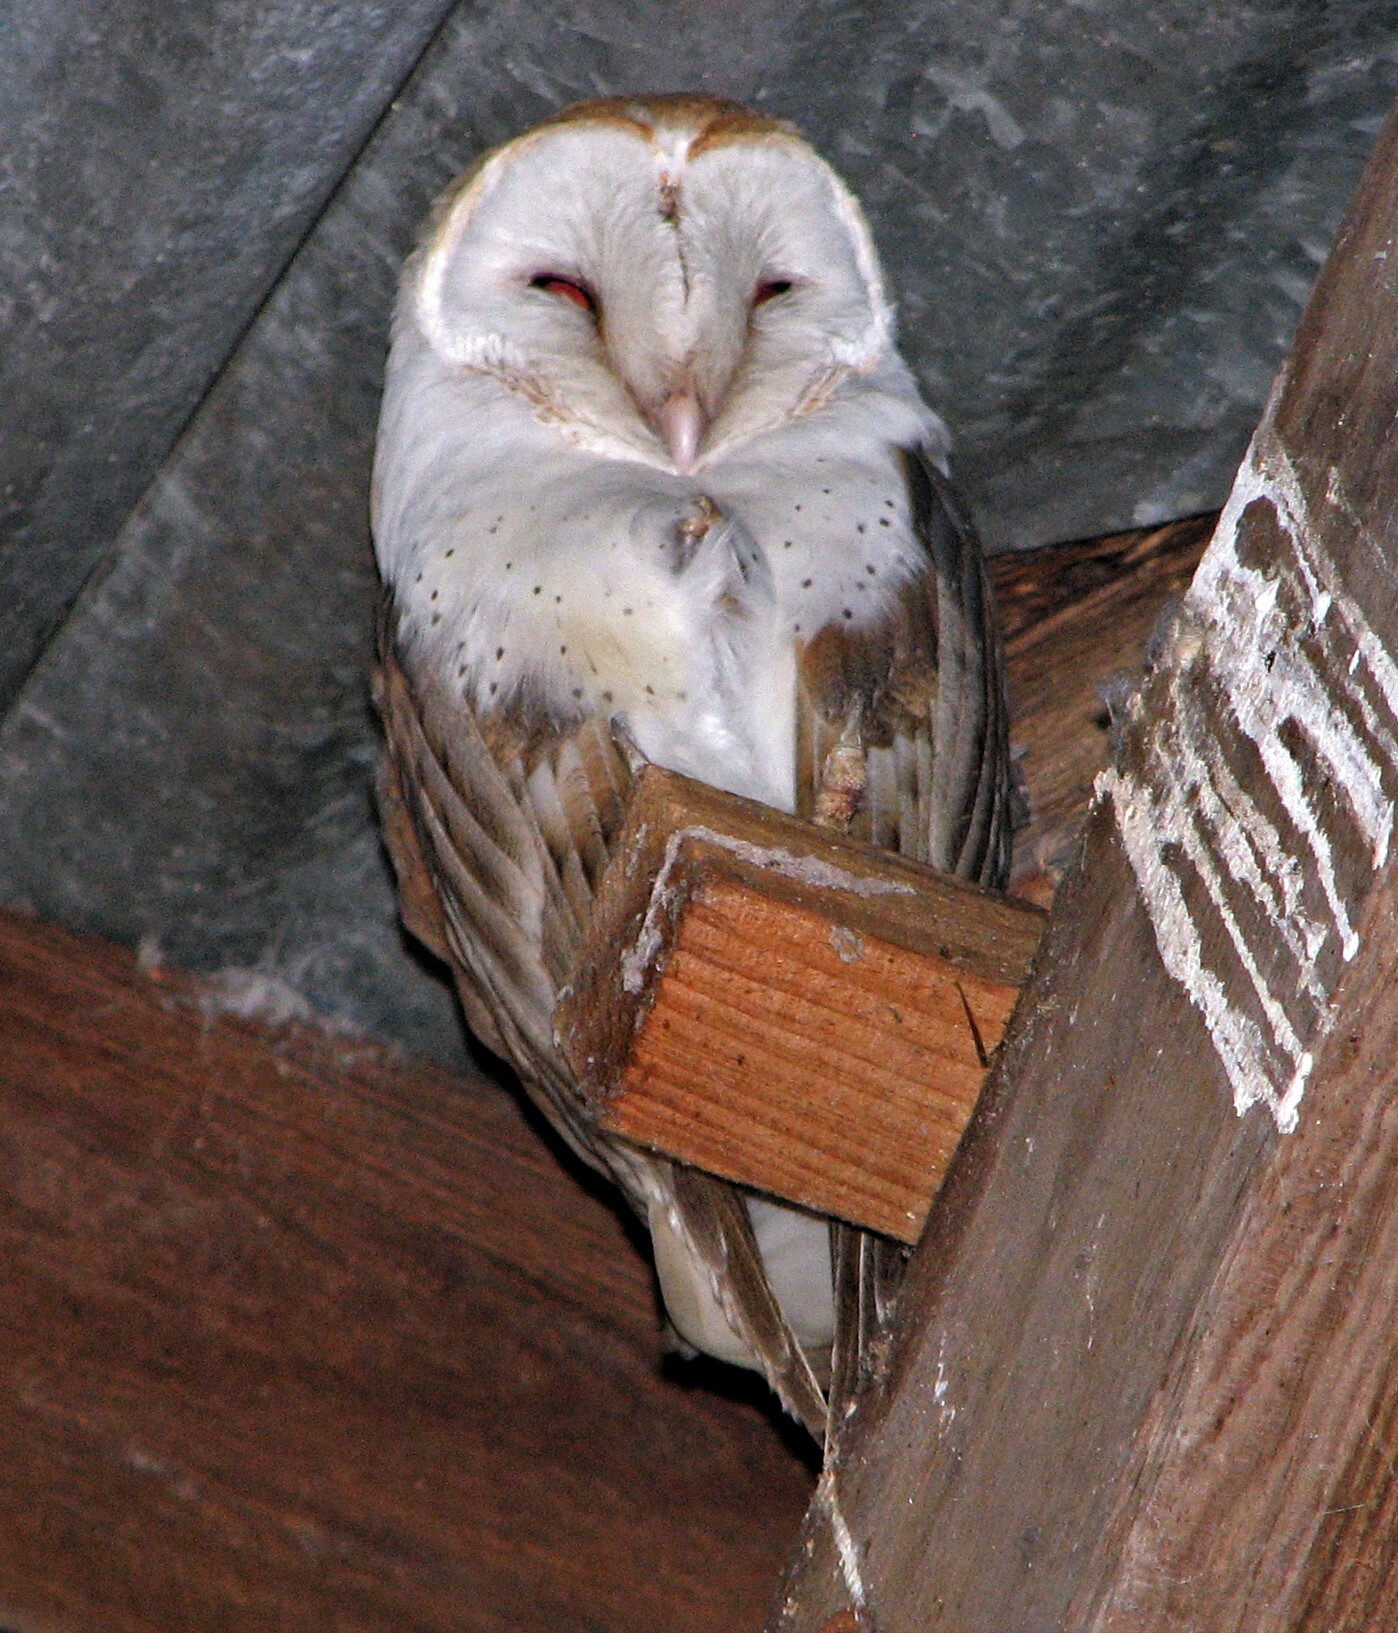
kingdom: Animalia
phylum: Chordata
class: Aves
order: Strigiformes
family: Tytonidae
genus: Tyto
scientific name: Tyto alba
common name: Barn owl
